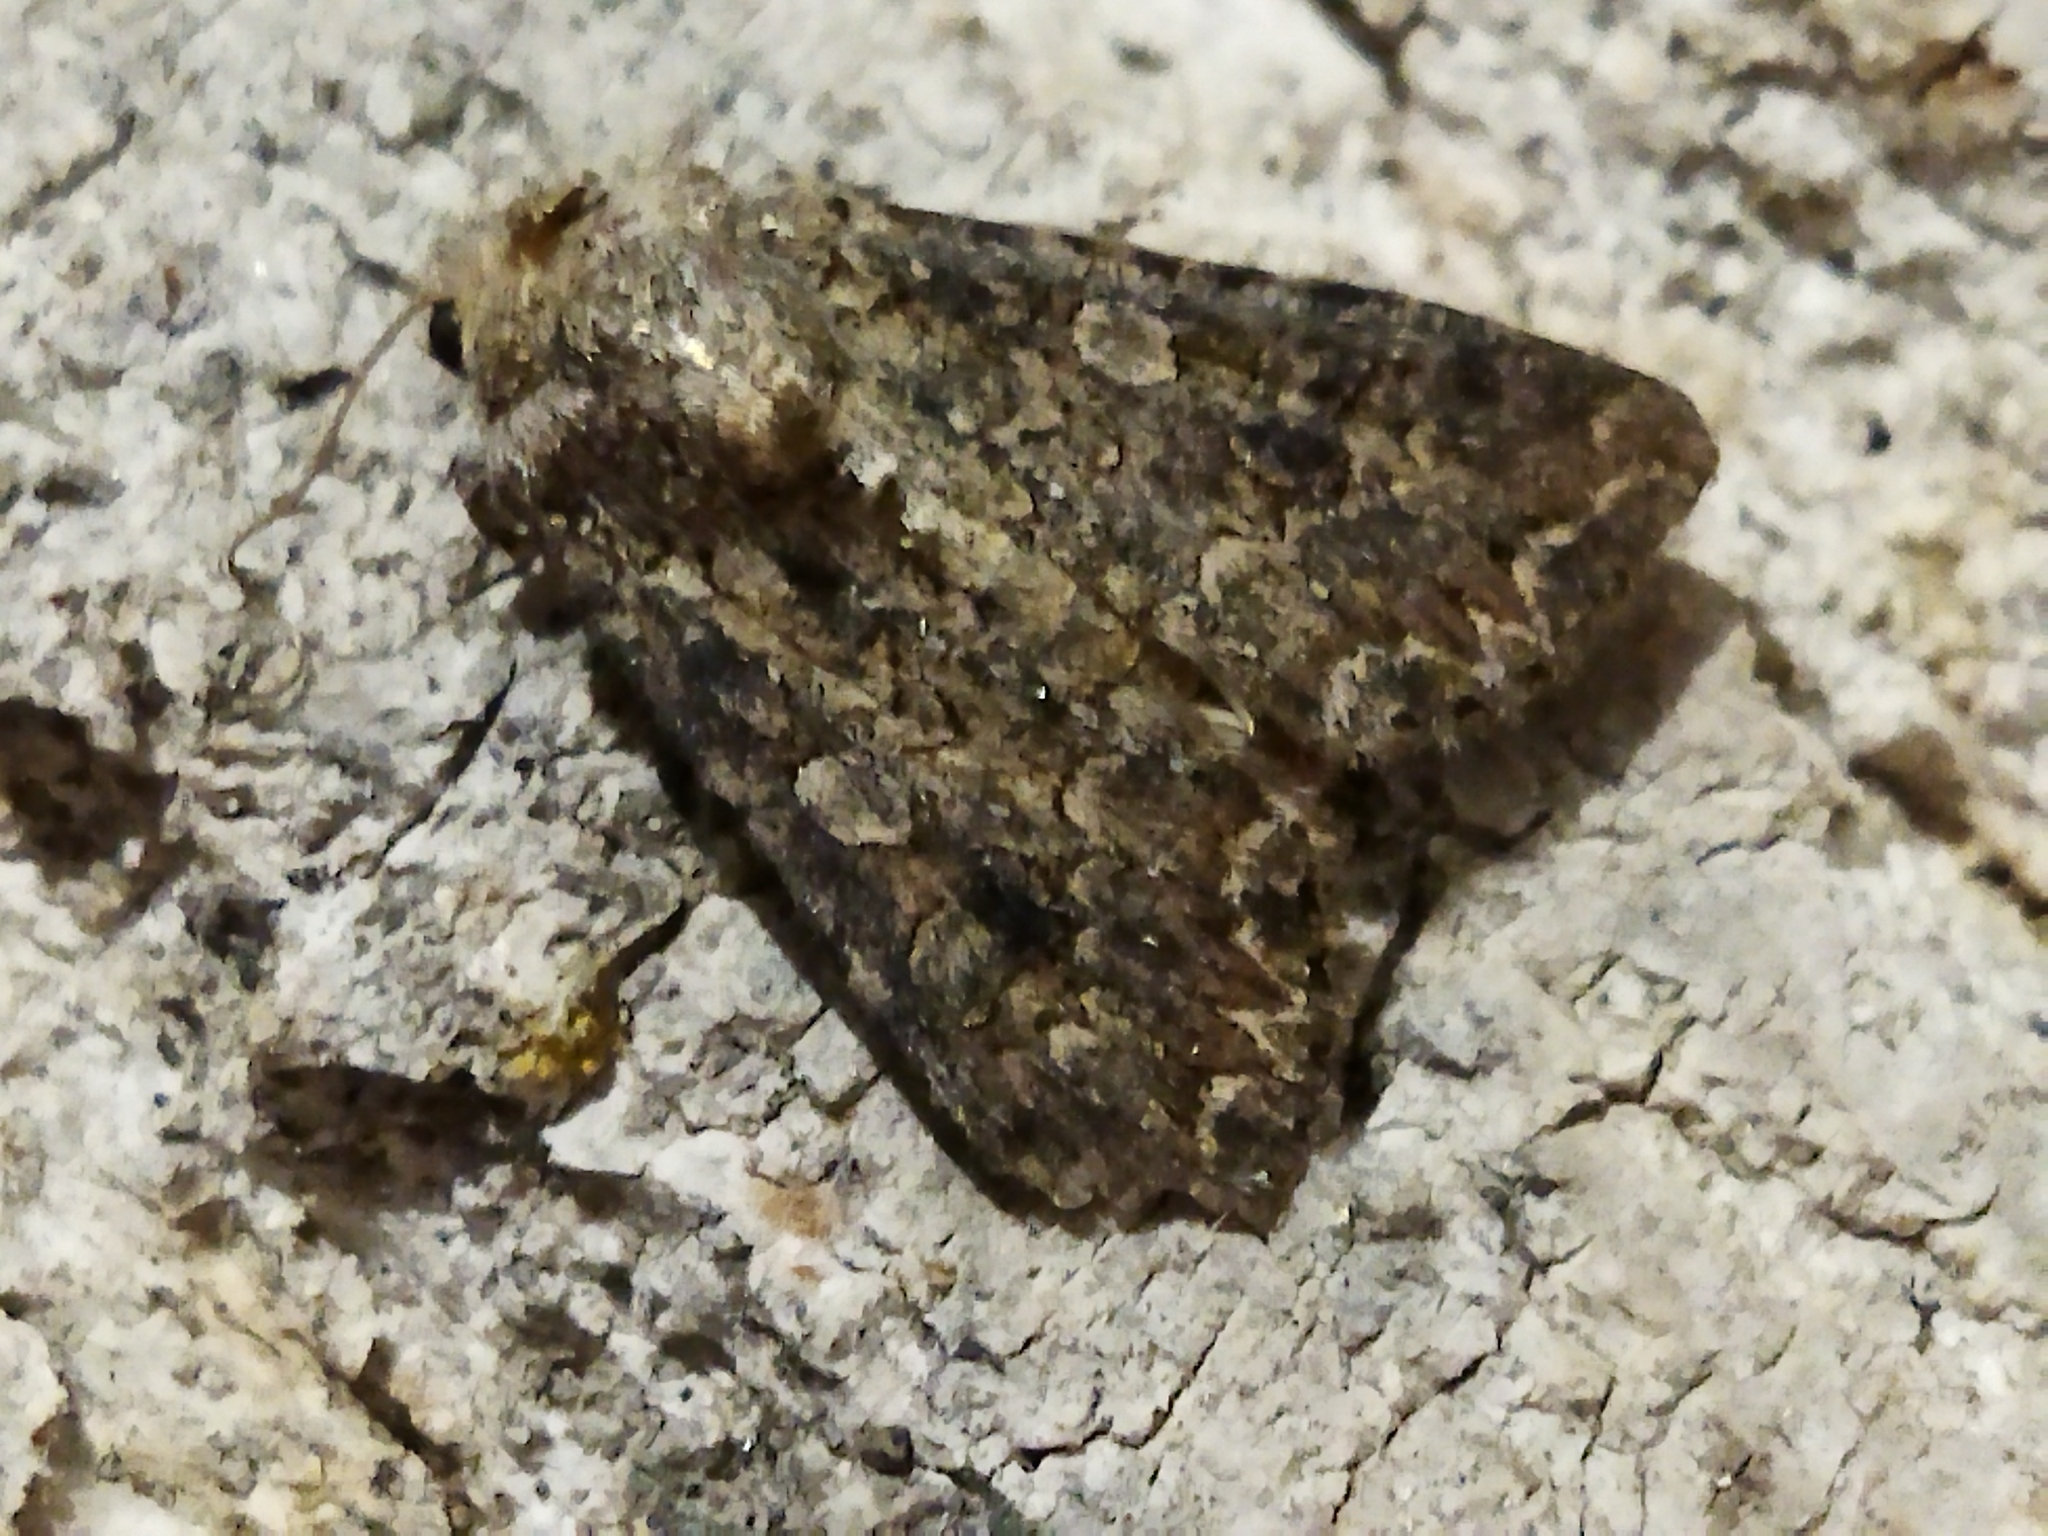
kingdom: Animalia
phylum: Arthropoda
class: Insecta
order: Lepidoptera
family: Noctuidae
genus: Anarta
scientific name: Anarta trifolii
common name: Clover cutworm moth
